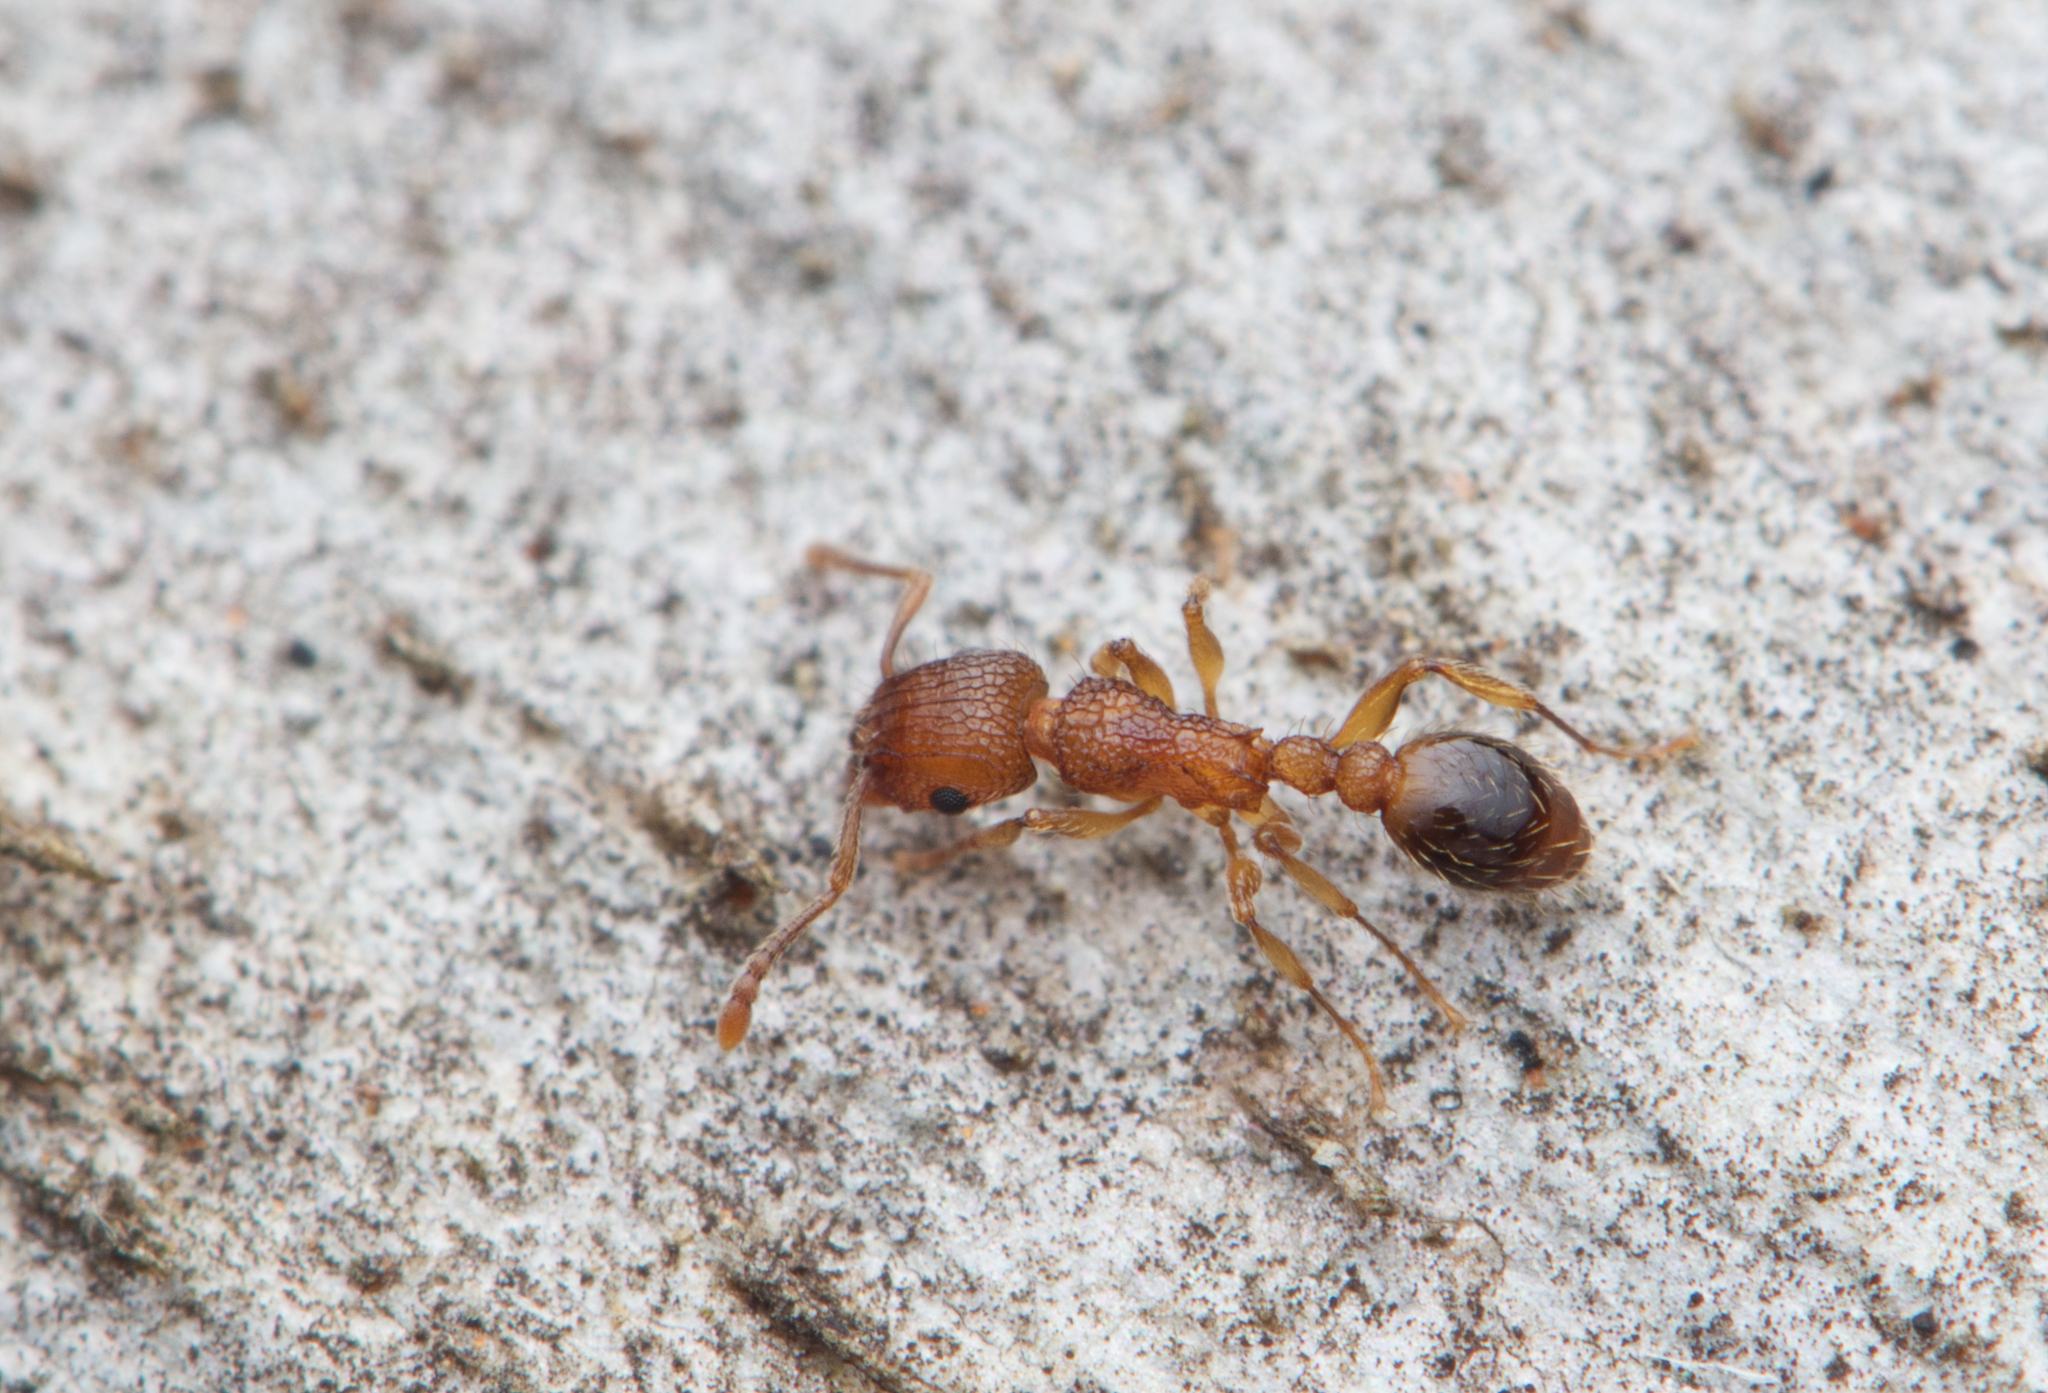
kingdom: Animalia
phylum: Arthropoda
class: Insecta
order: Hymenoptera
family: Formicidae
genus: Tetramorium
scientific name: Tetramorium bicarinatum
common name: Guinea ant
